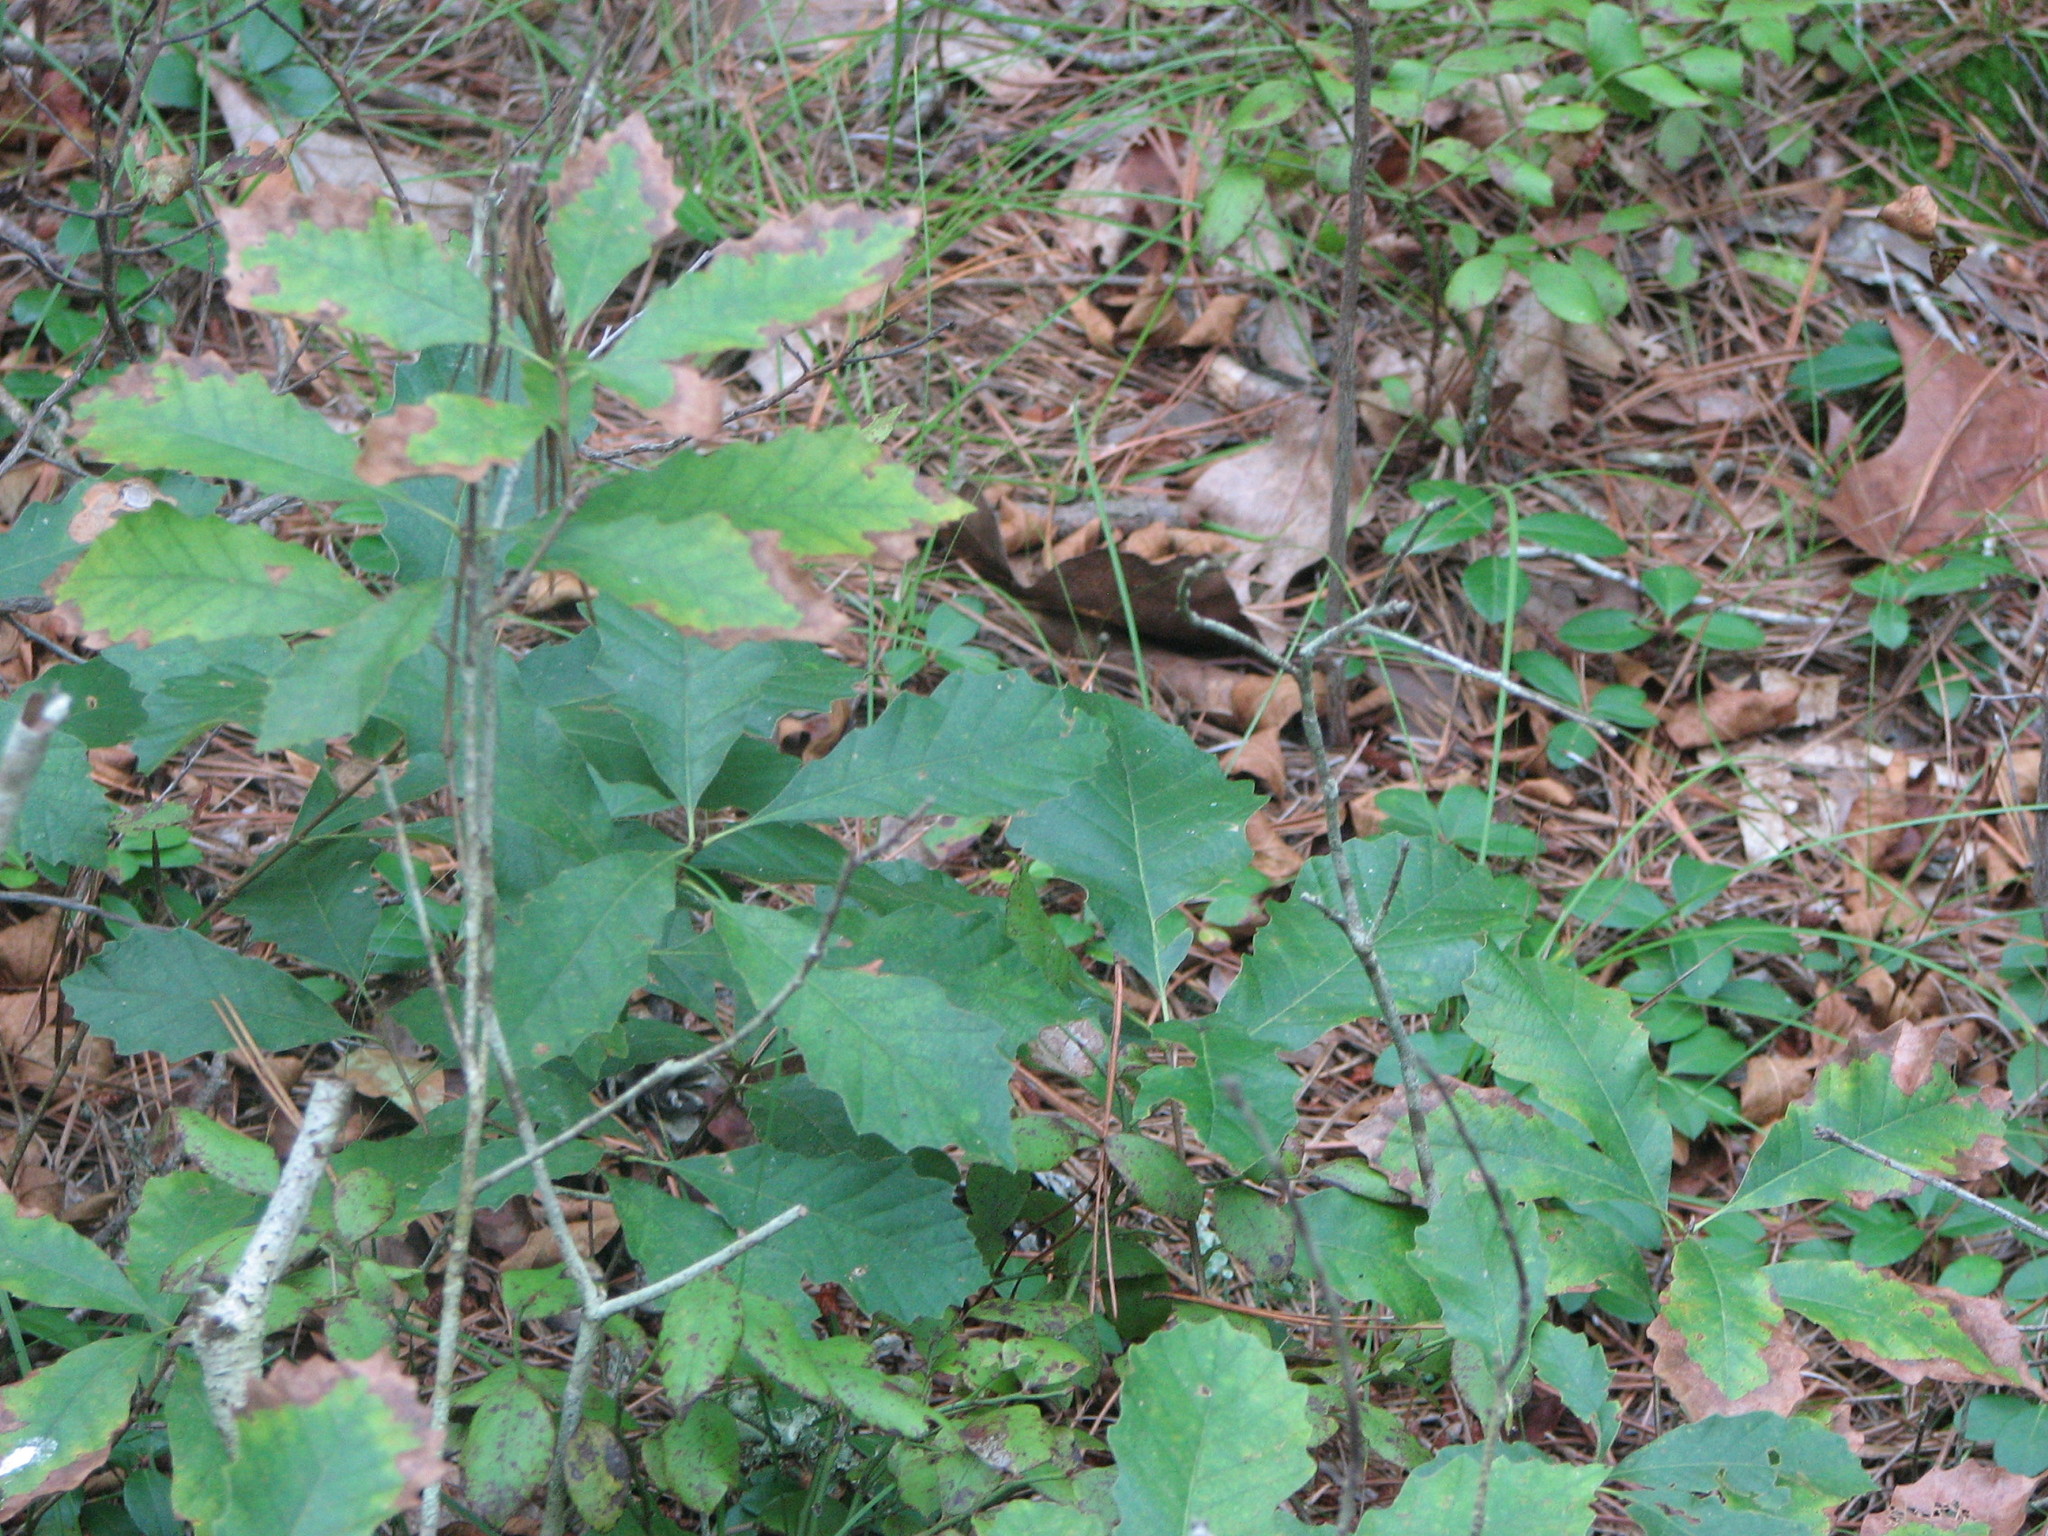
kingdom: Plantae
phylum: Tracheophyta
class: Magnoliopsida
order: Fagales
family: Fagaceae
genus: Quercus
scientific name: Quercus prinoides
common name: Dwarf chinkapin oak
